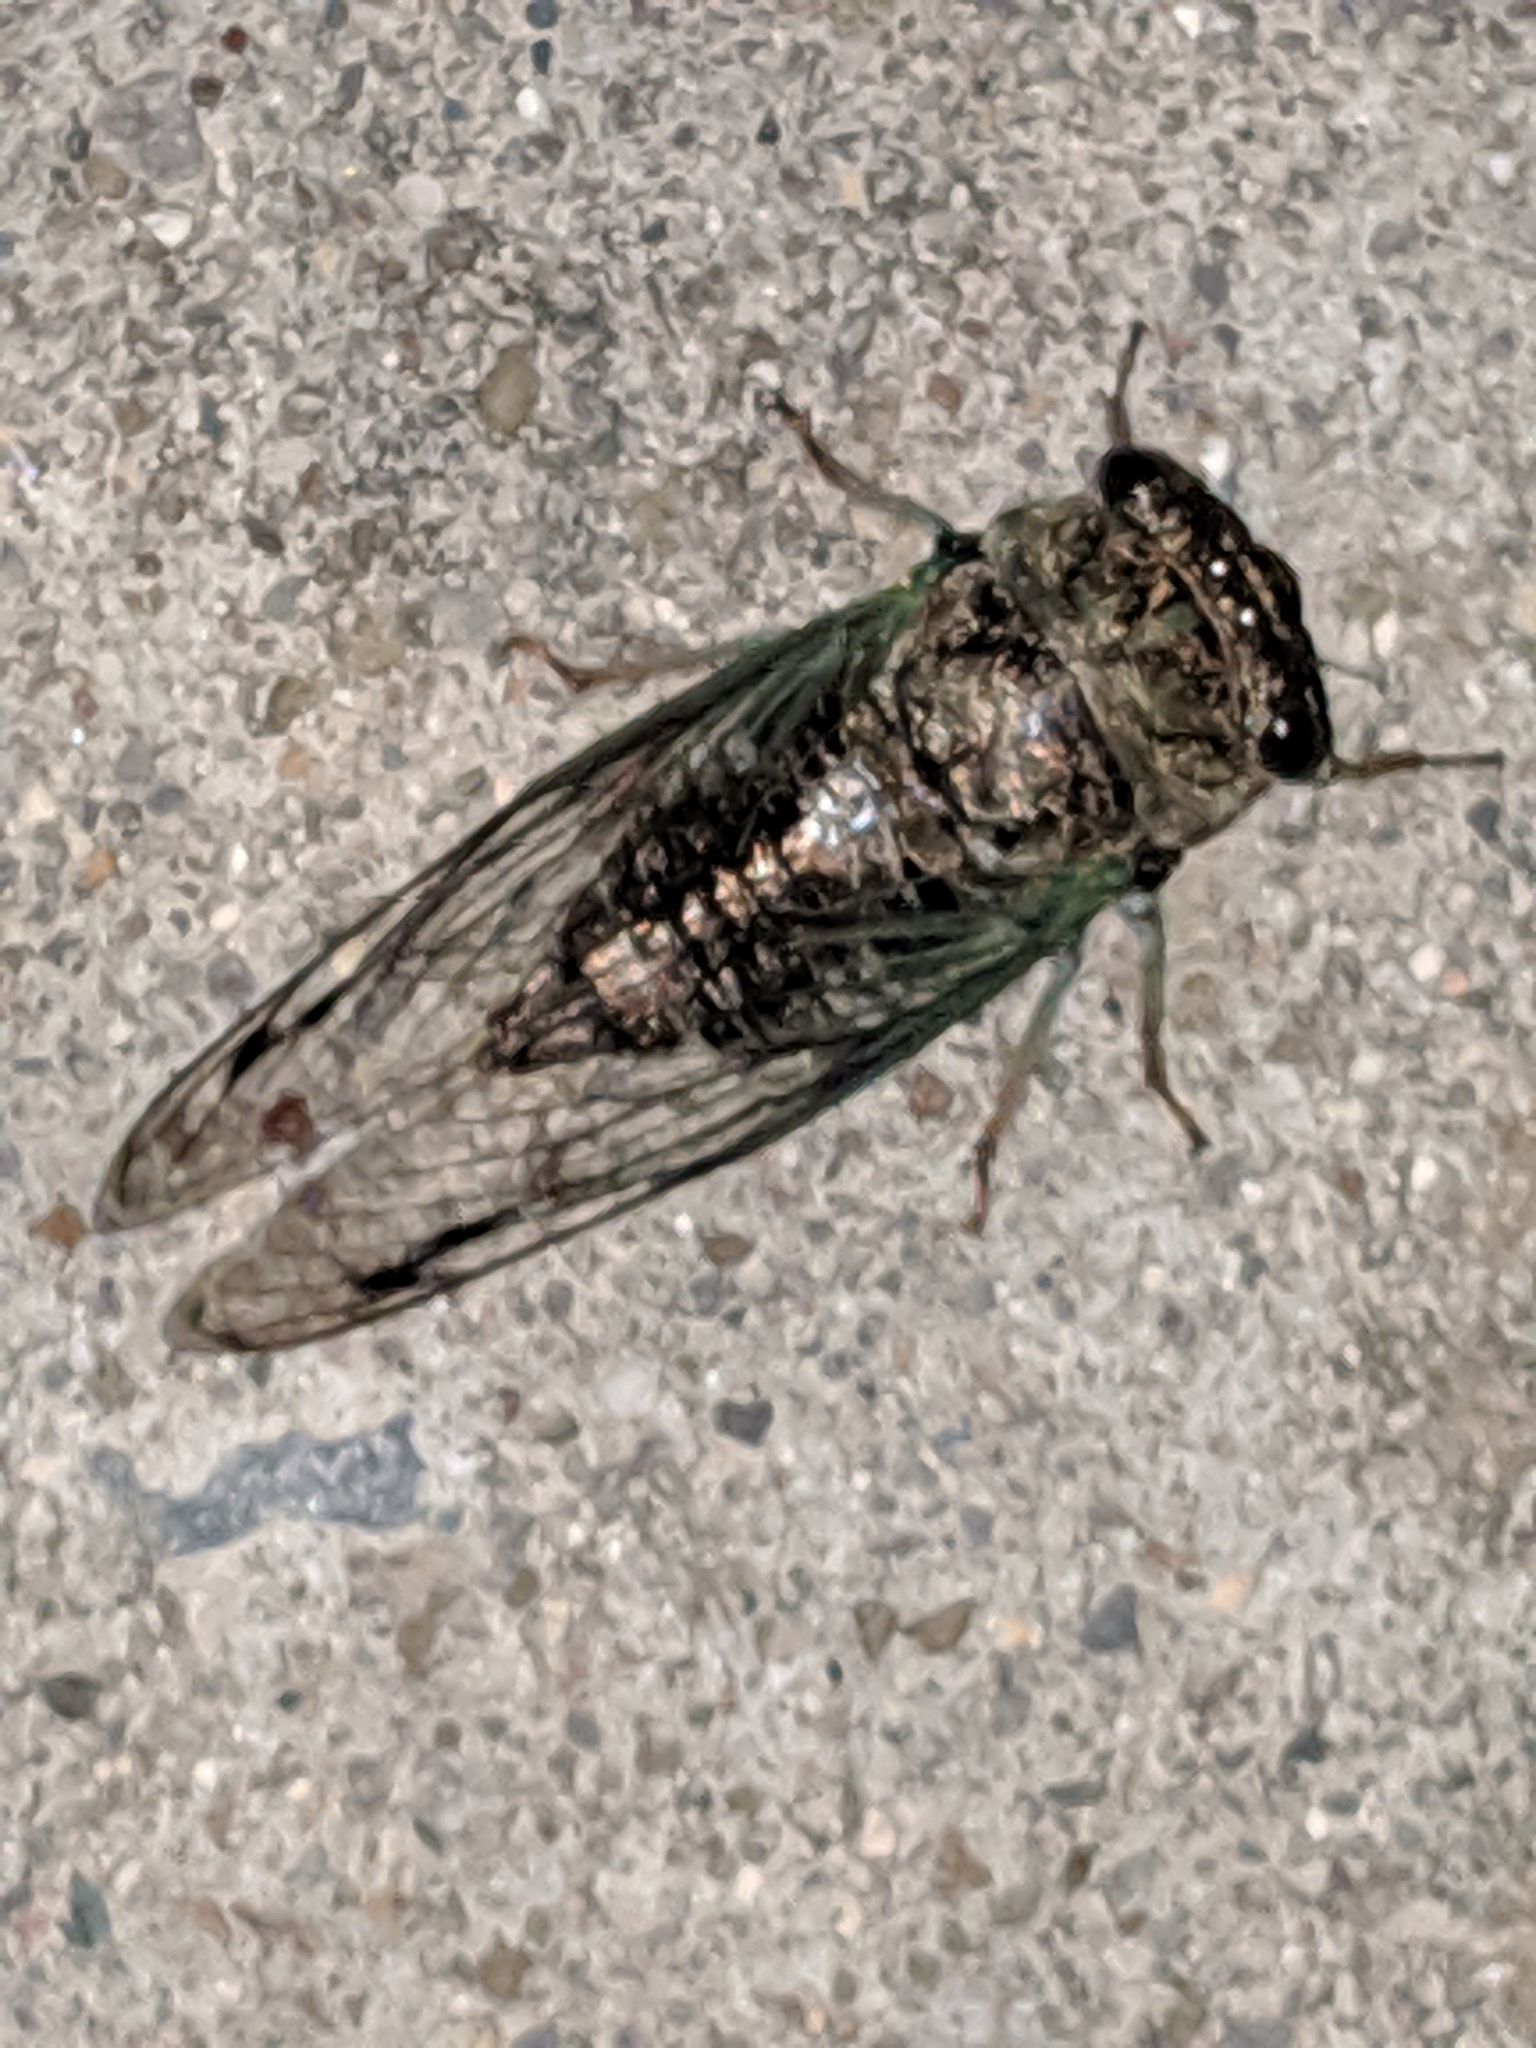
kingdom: Animalia
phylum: Arthropoda
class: Insecta
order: Hemiptera
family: Cicadidae
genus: Neotibicen
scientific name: Neotibicen canicularis
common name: God-day cicada
